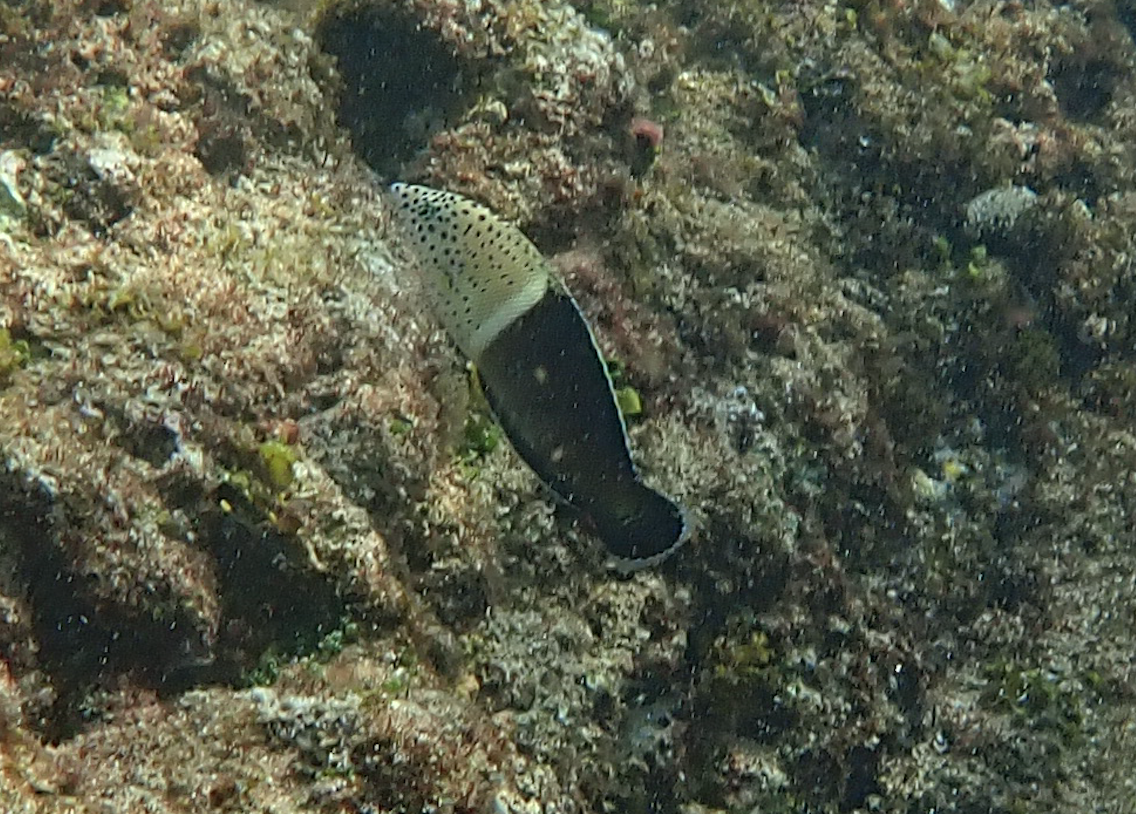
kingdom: Animalia
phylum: Chordata
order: Perciformes
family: Labridae
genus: Coris
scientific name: Coris aygula
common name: Clown coris
